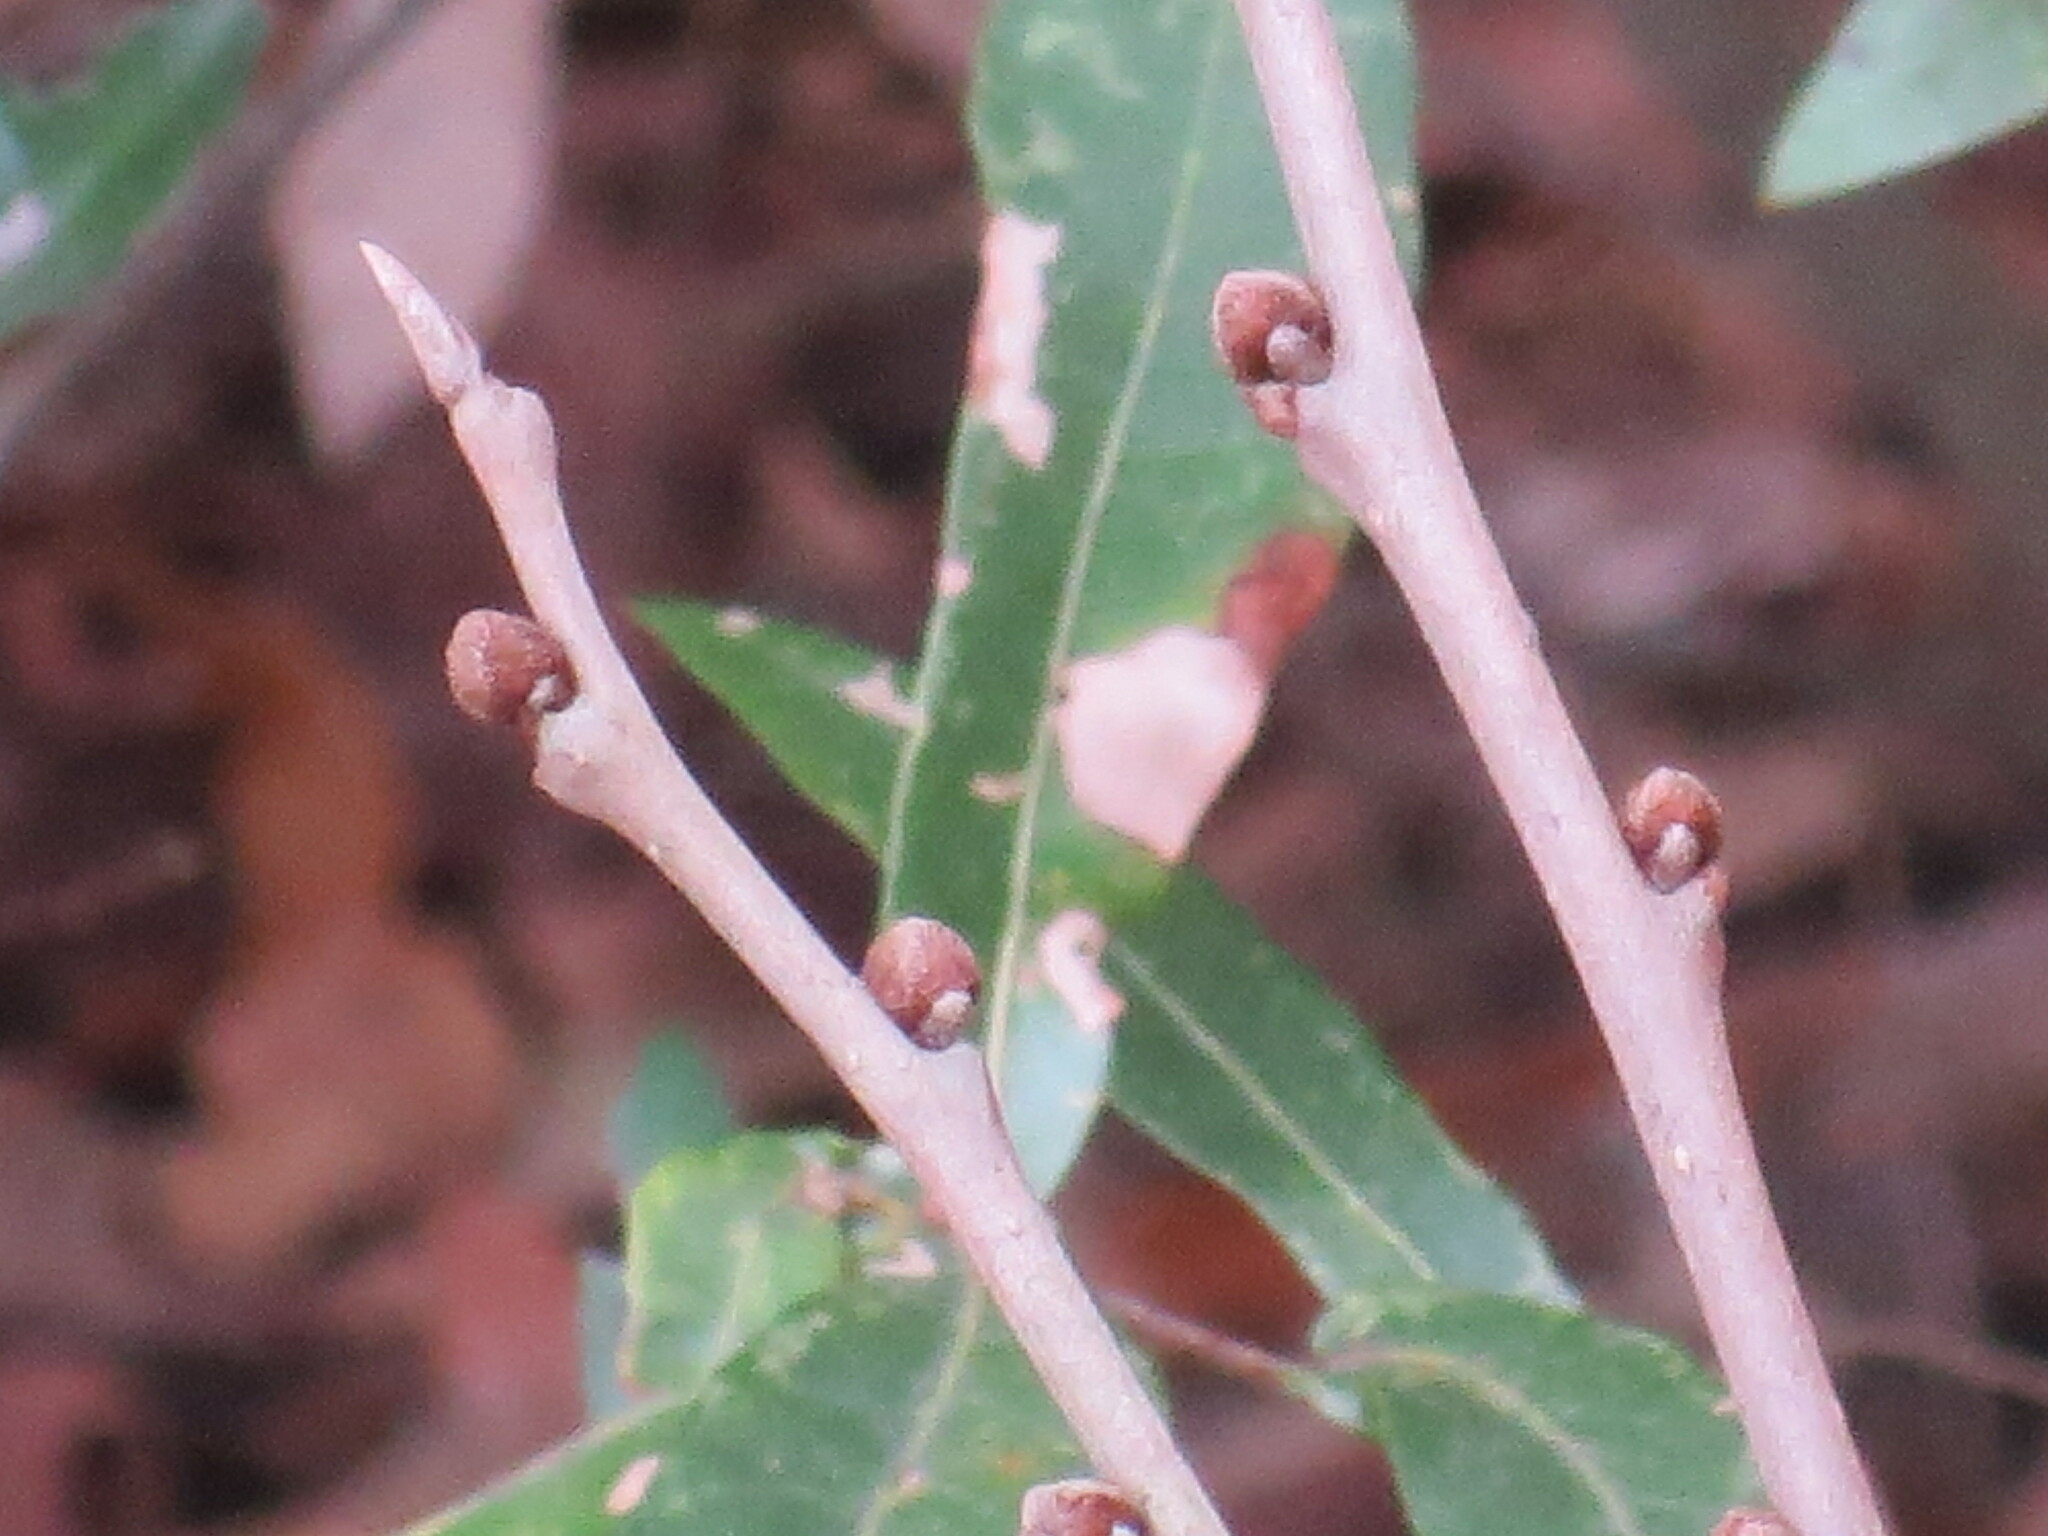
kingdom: Plantae
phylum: Tracheophyta
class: Magnoliopsida
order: Magnoliales
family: Annonaceae
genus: Asimina
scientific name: Asimina parviflora
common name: Dwarf pawpaw
